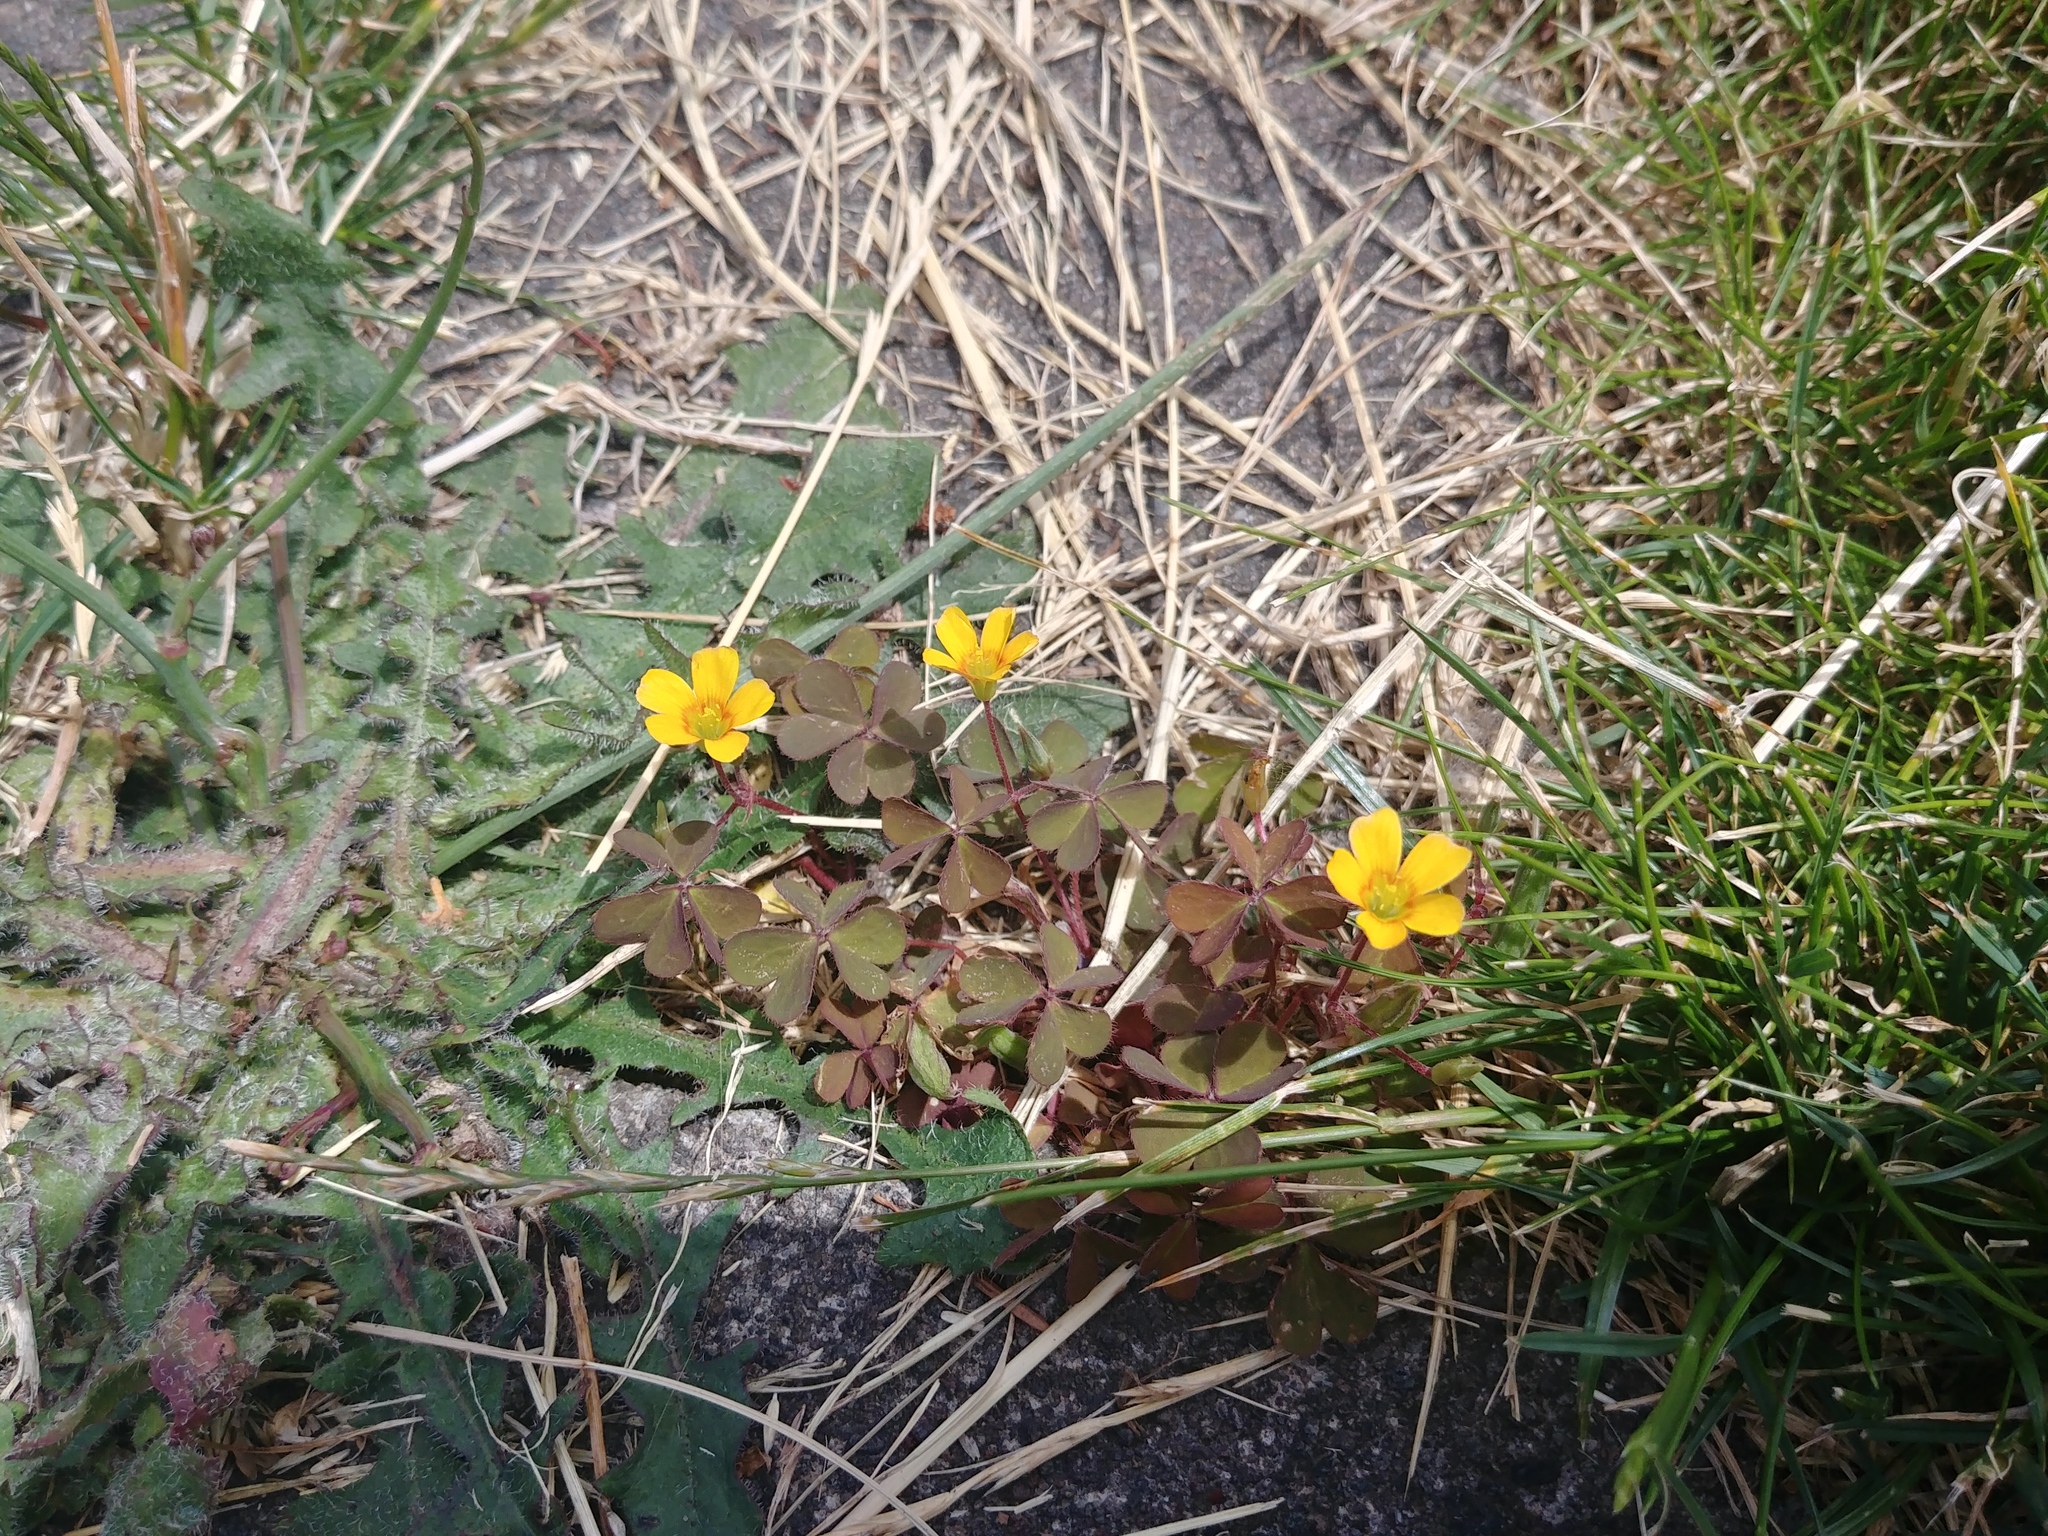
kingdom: Plantae
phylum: Tracheophyta
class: Magnoliopsida
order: Oxalidales
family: Oxalidaceae
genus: Oxalis
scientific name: Oxalis corniculata
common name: Procumbent yellow-sorrel
